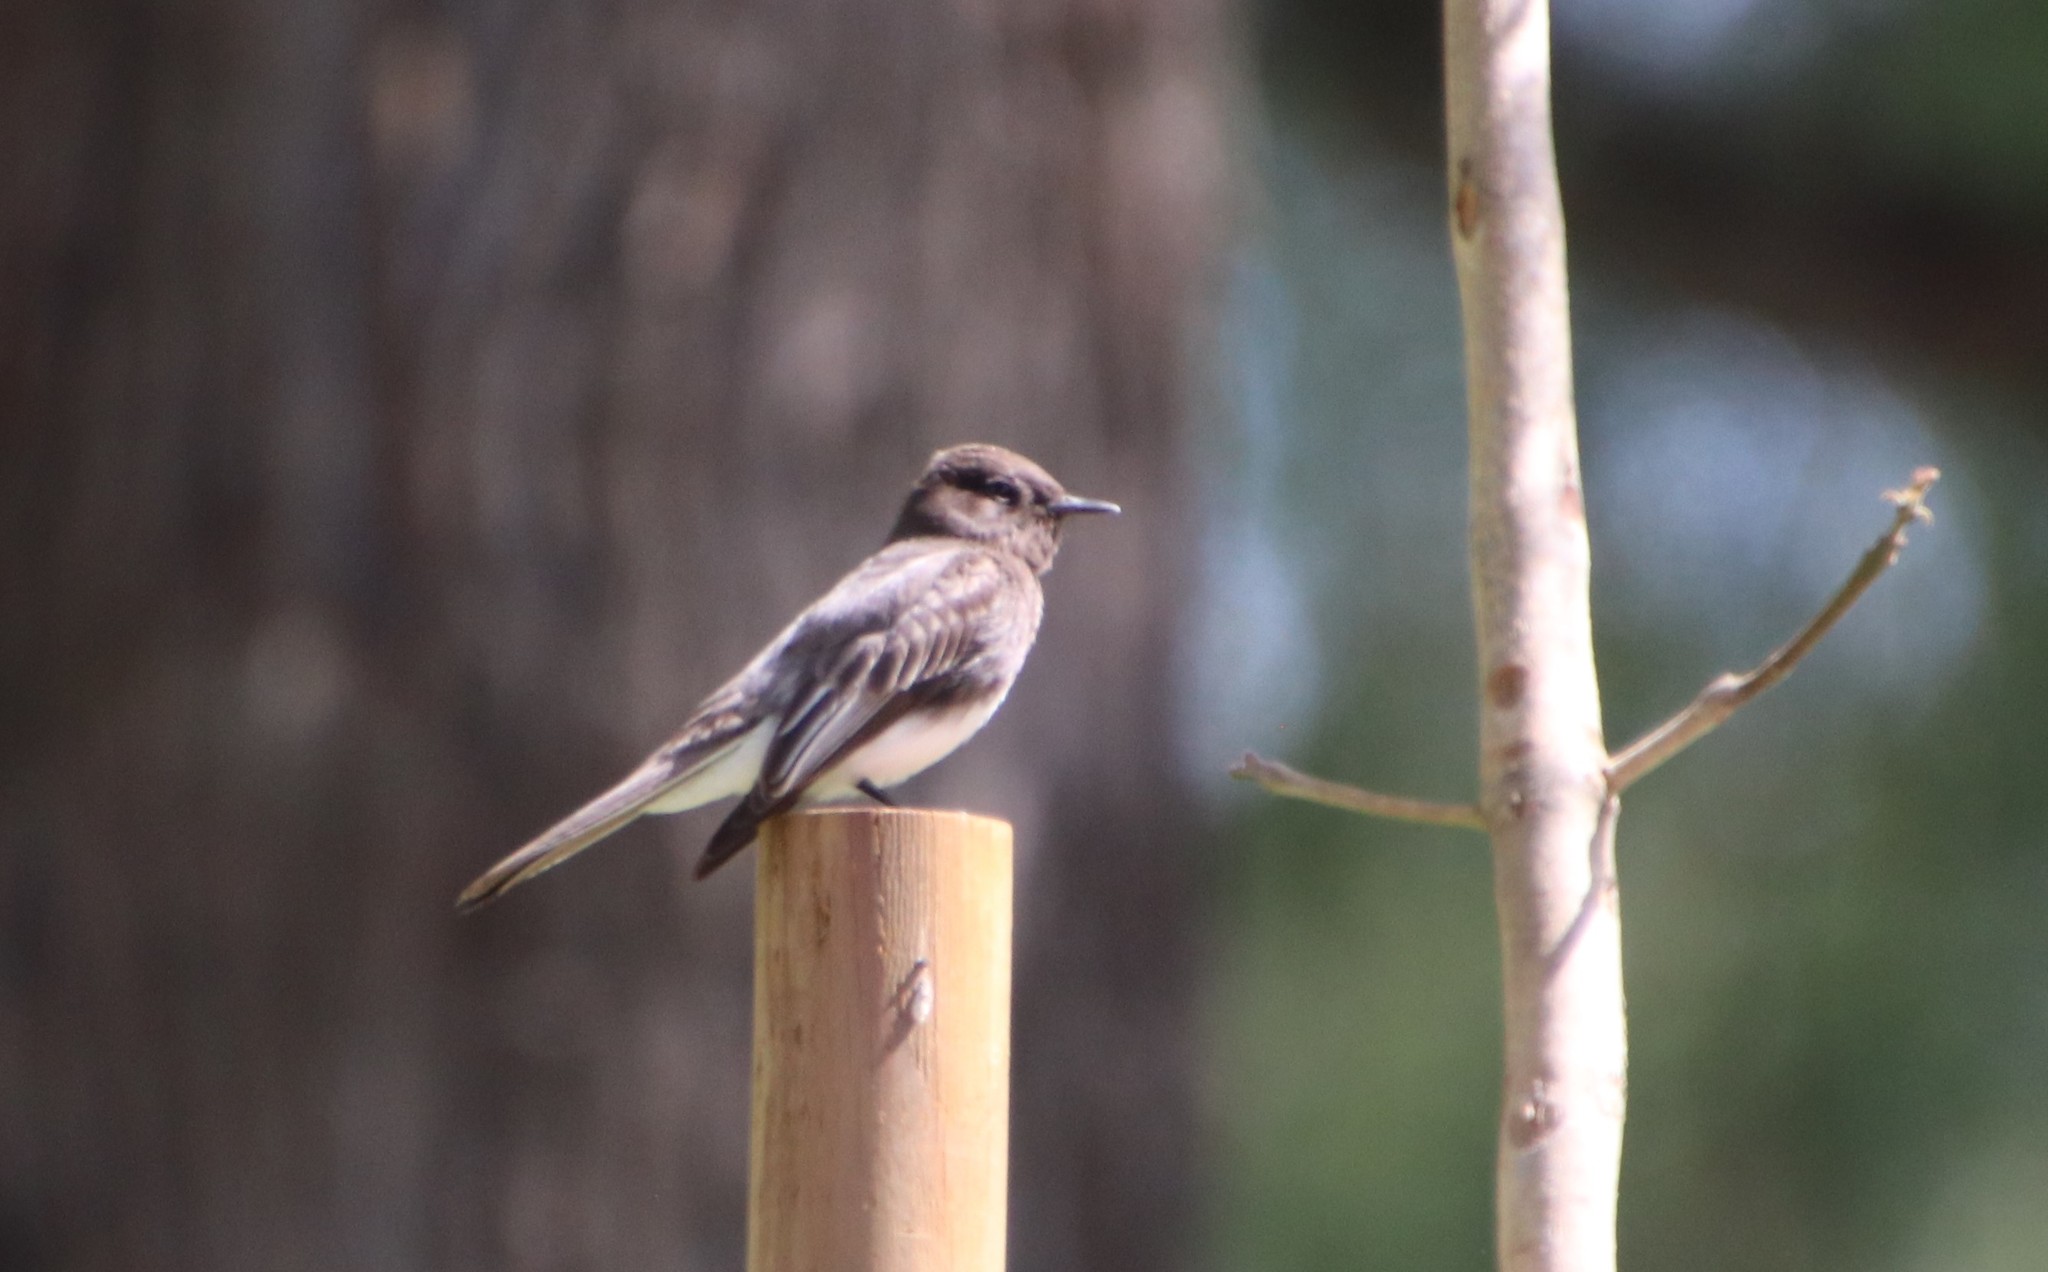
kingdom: Animalia
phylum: Chordata
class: Aves
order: Passeriformes
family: Tyrannidae
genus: Sayornis
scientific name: Sayornis nigricans
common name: Black phoebe
